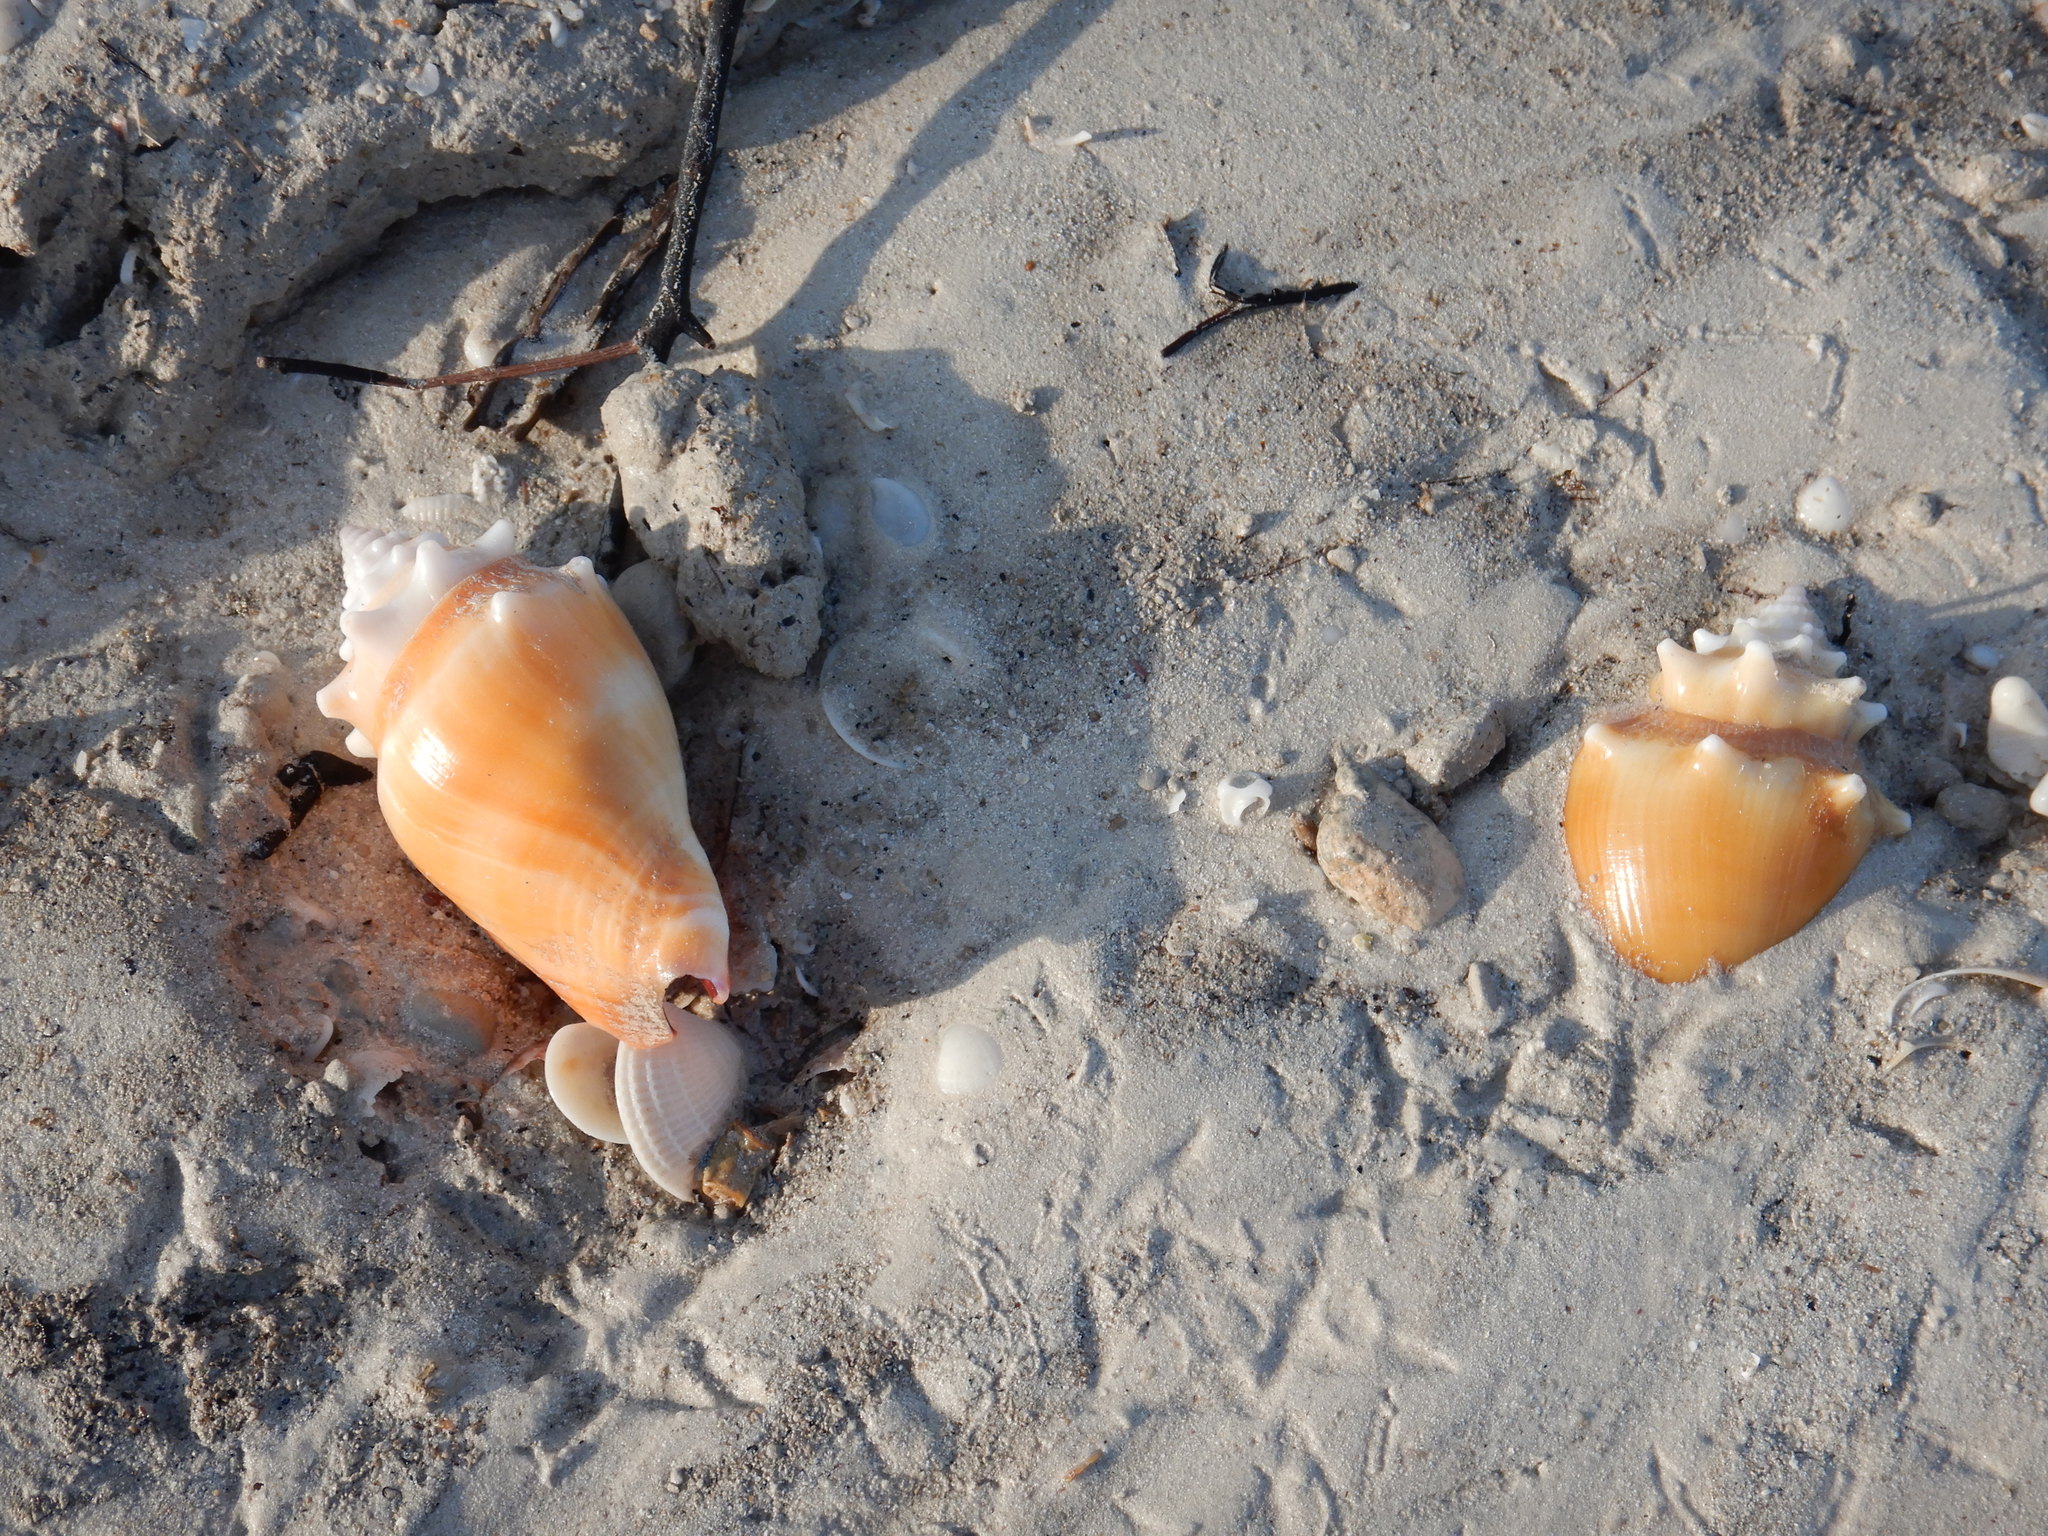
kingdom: Animalia
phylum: Mollusca
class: Gastropoda
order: Littorinimorpha
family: Strombidae
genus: Strombus
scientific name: Strombus alatus
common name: Florida fighting conch
